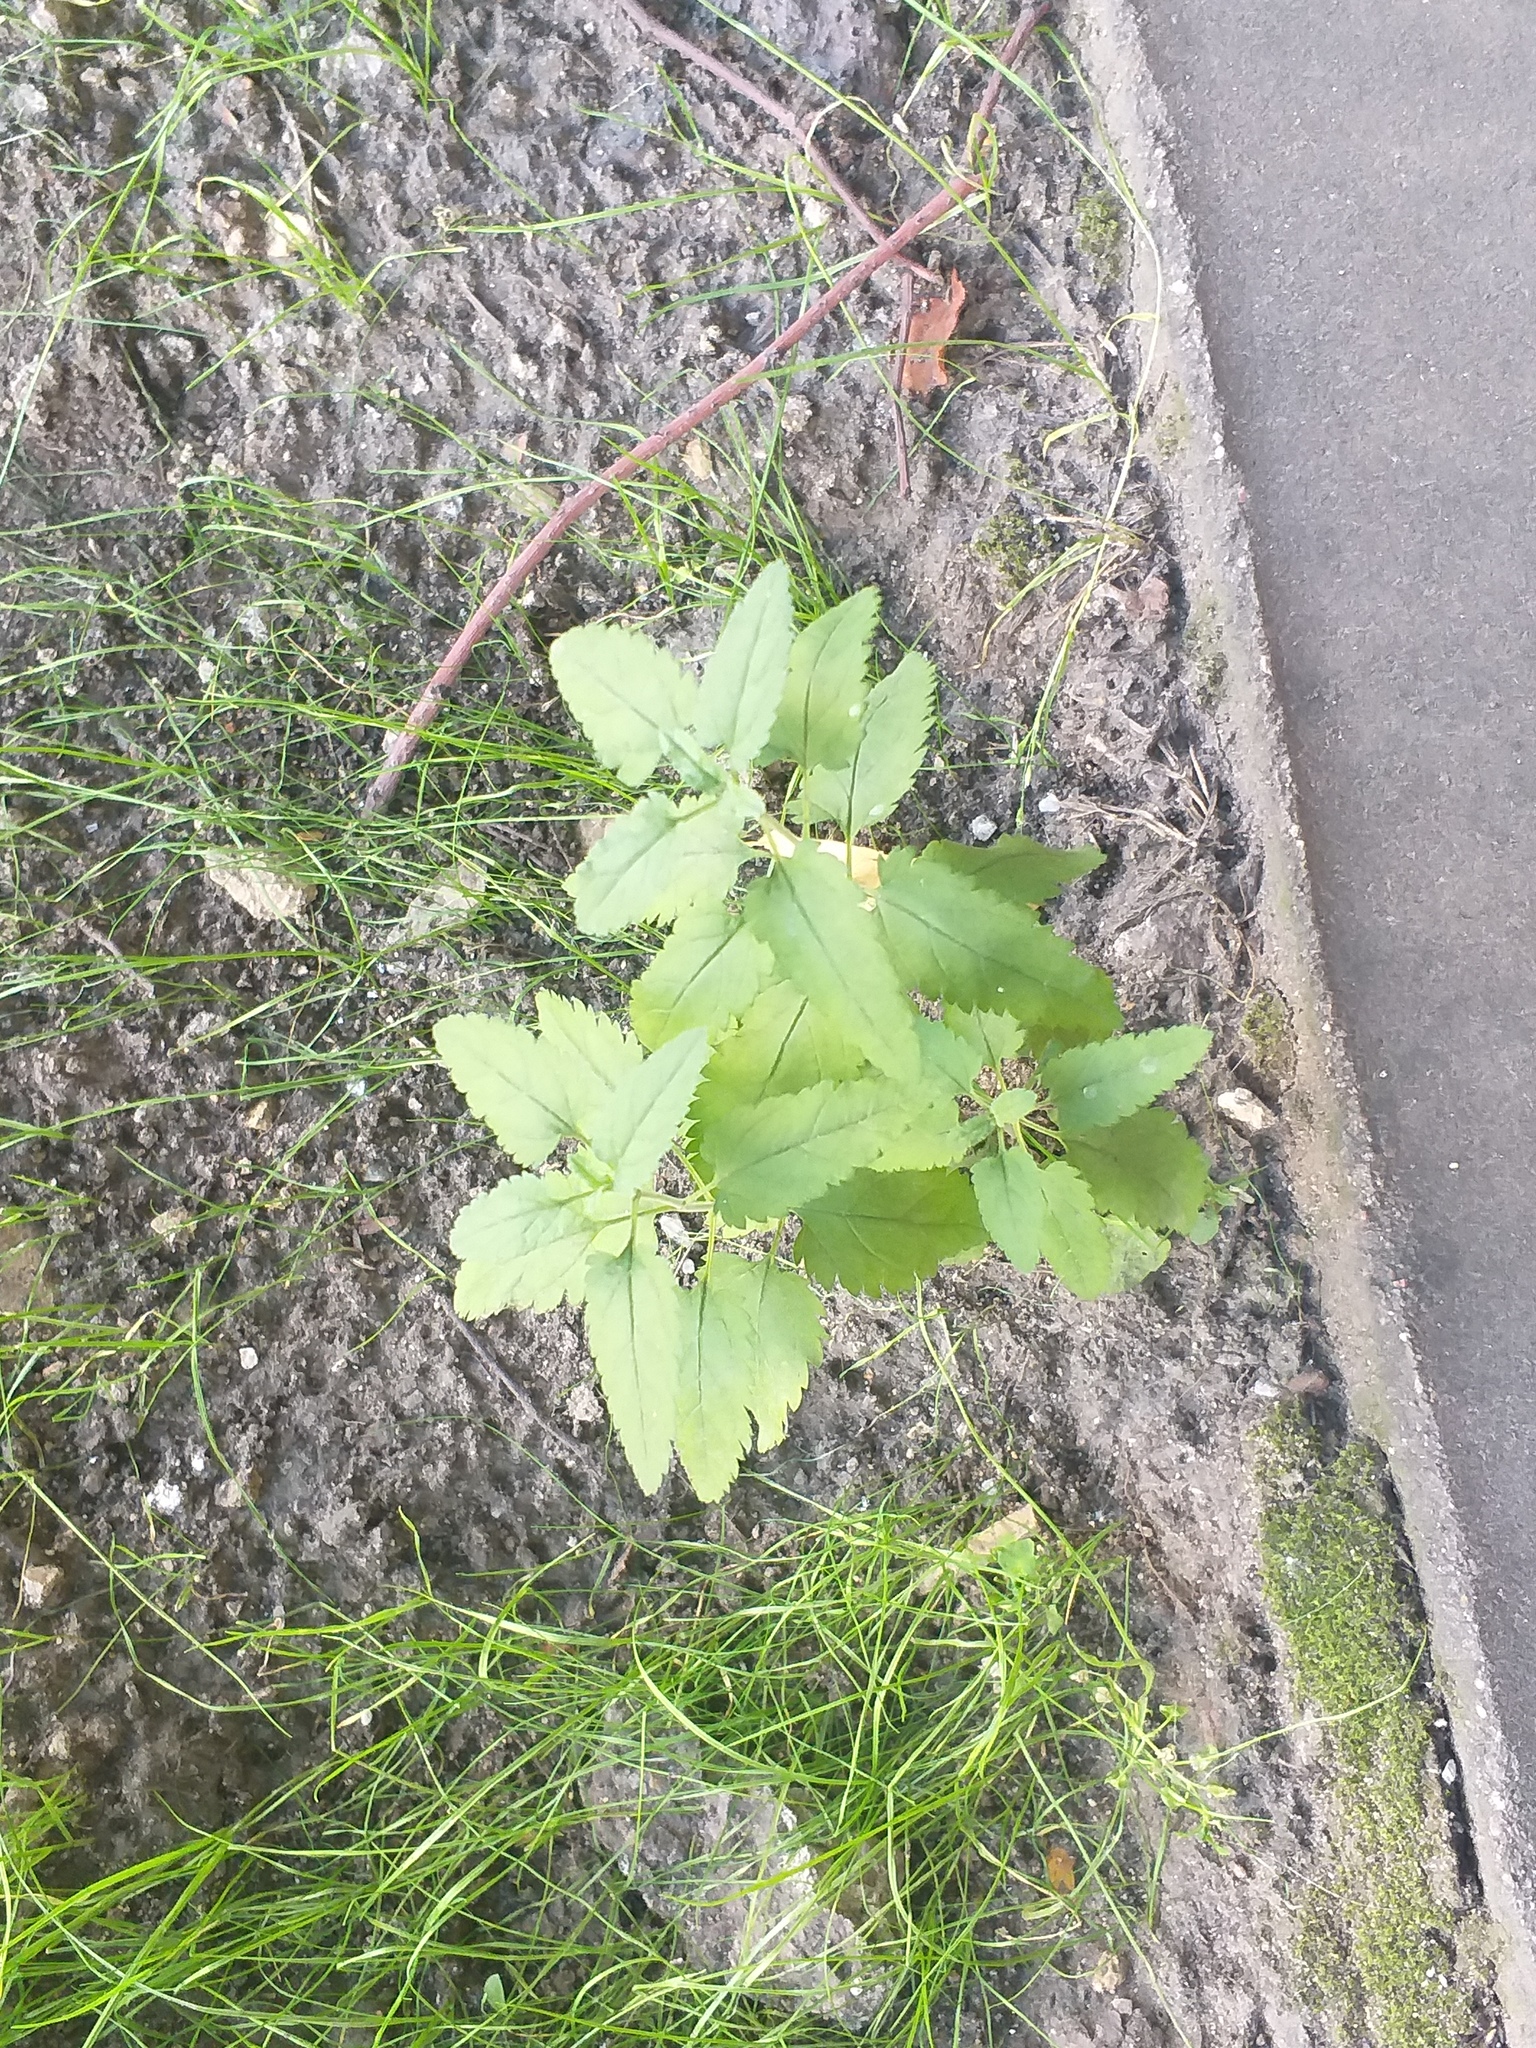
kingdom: Plantae
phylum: Tracheophyta
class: Magnoliopsida
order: Lamiales
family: Plantaginaceae
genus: Veronica
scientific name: Veronica longifolia
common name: Garden speedwell
